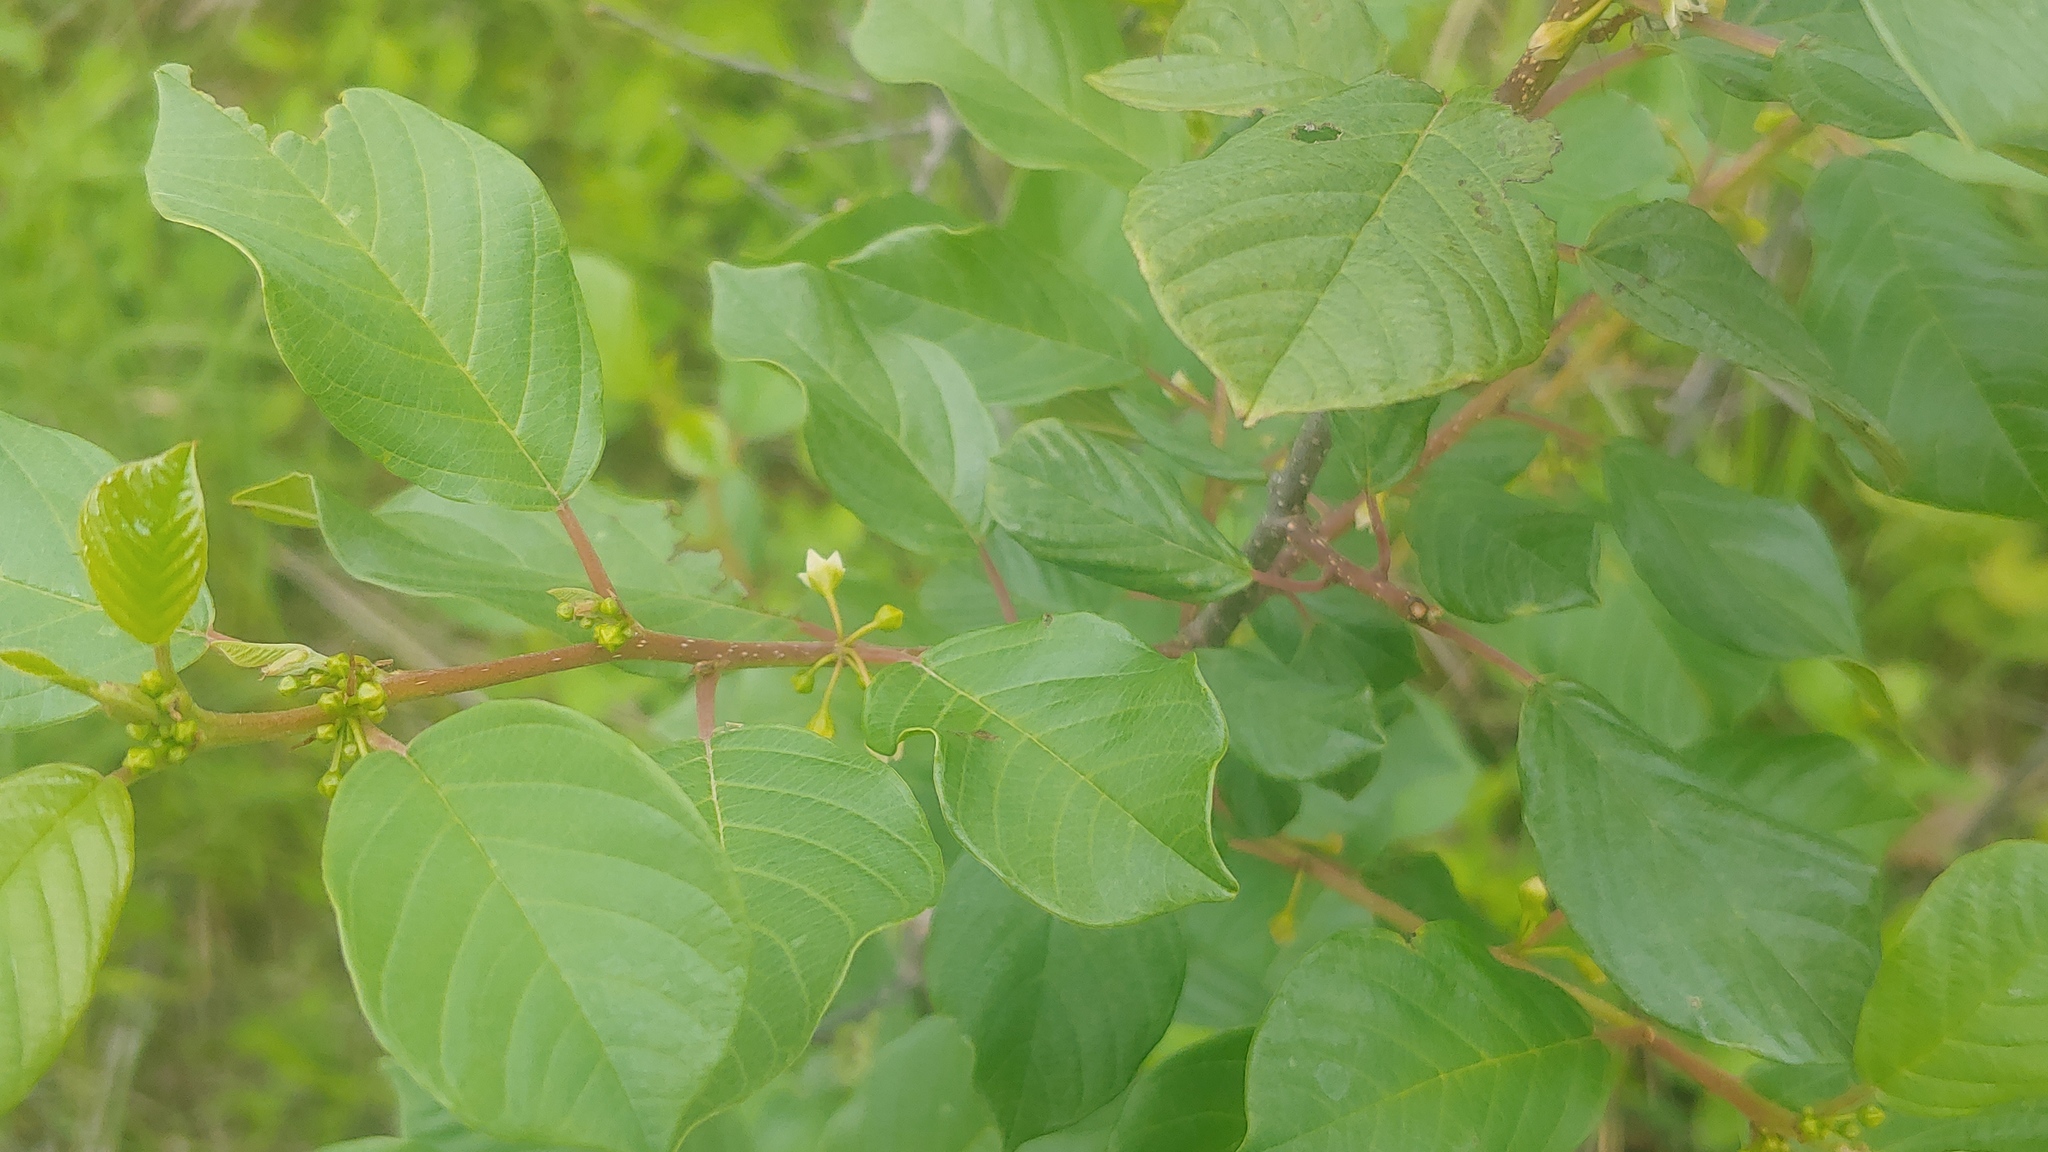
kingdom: Plantae
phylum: Tracheophyta
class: Magnoliopsida
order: Rosales
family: Rhamnaceae
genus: Frangula
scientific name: Frangula alnus
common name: Alder buckthorn
